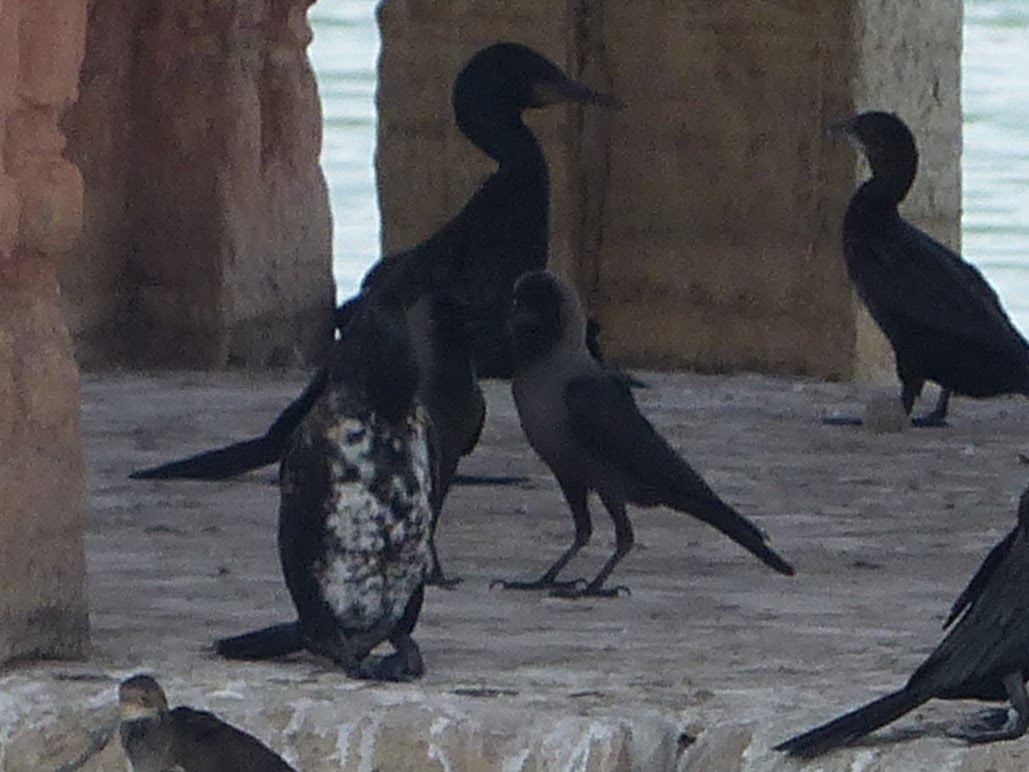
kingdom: Animalia
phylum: Chordata
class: Aves
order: Passeriformes
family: Corvidae
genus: Corvus
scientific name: Corvus splendens
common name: House crow
